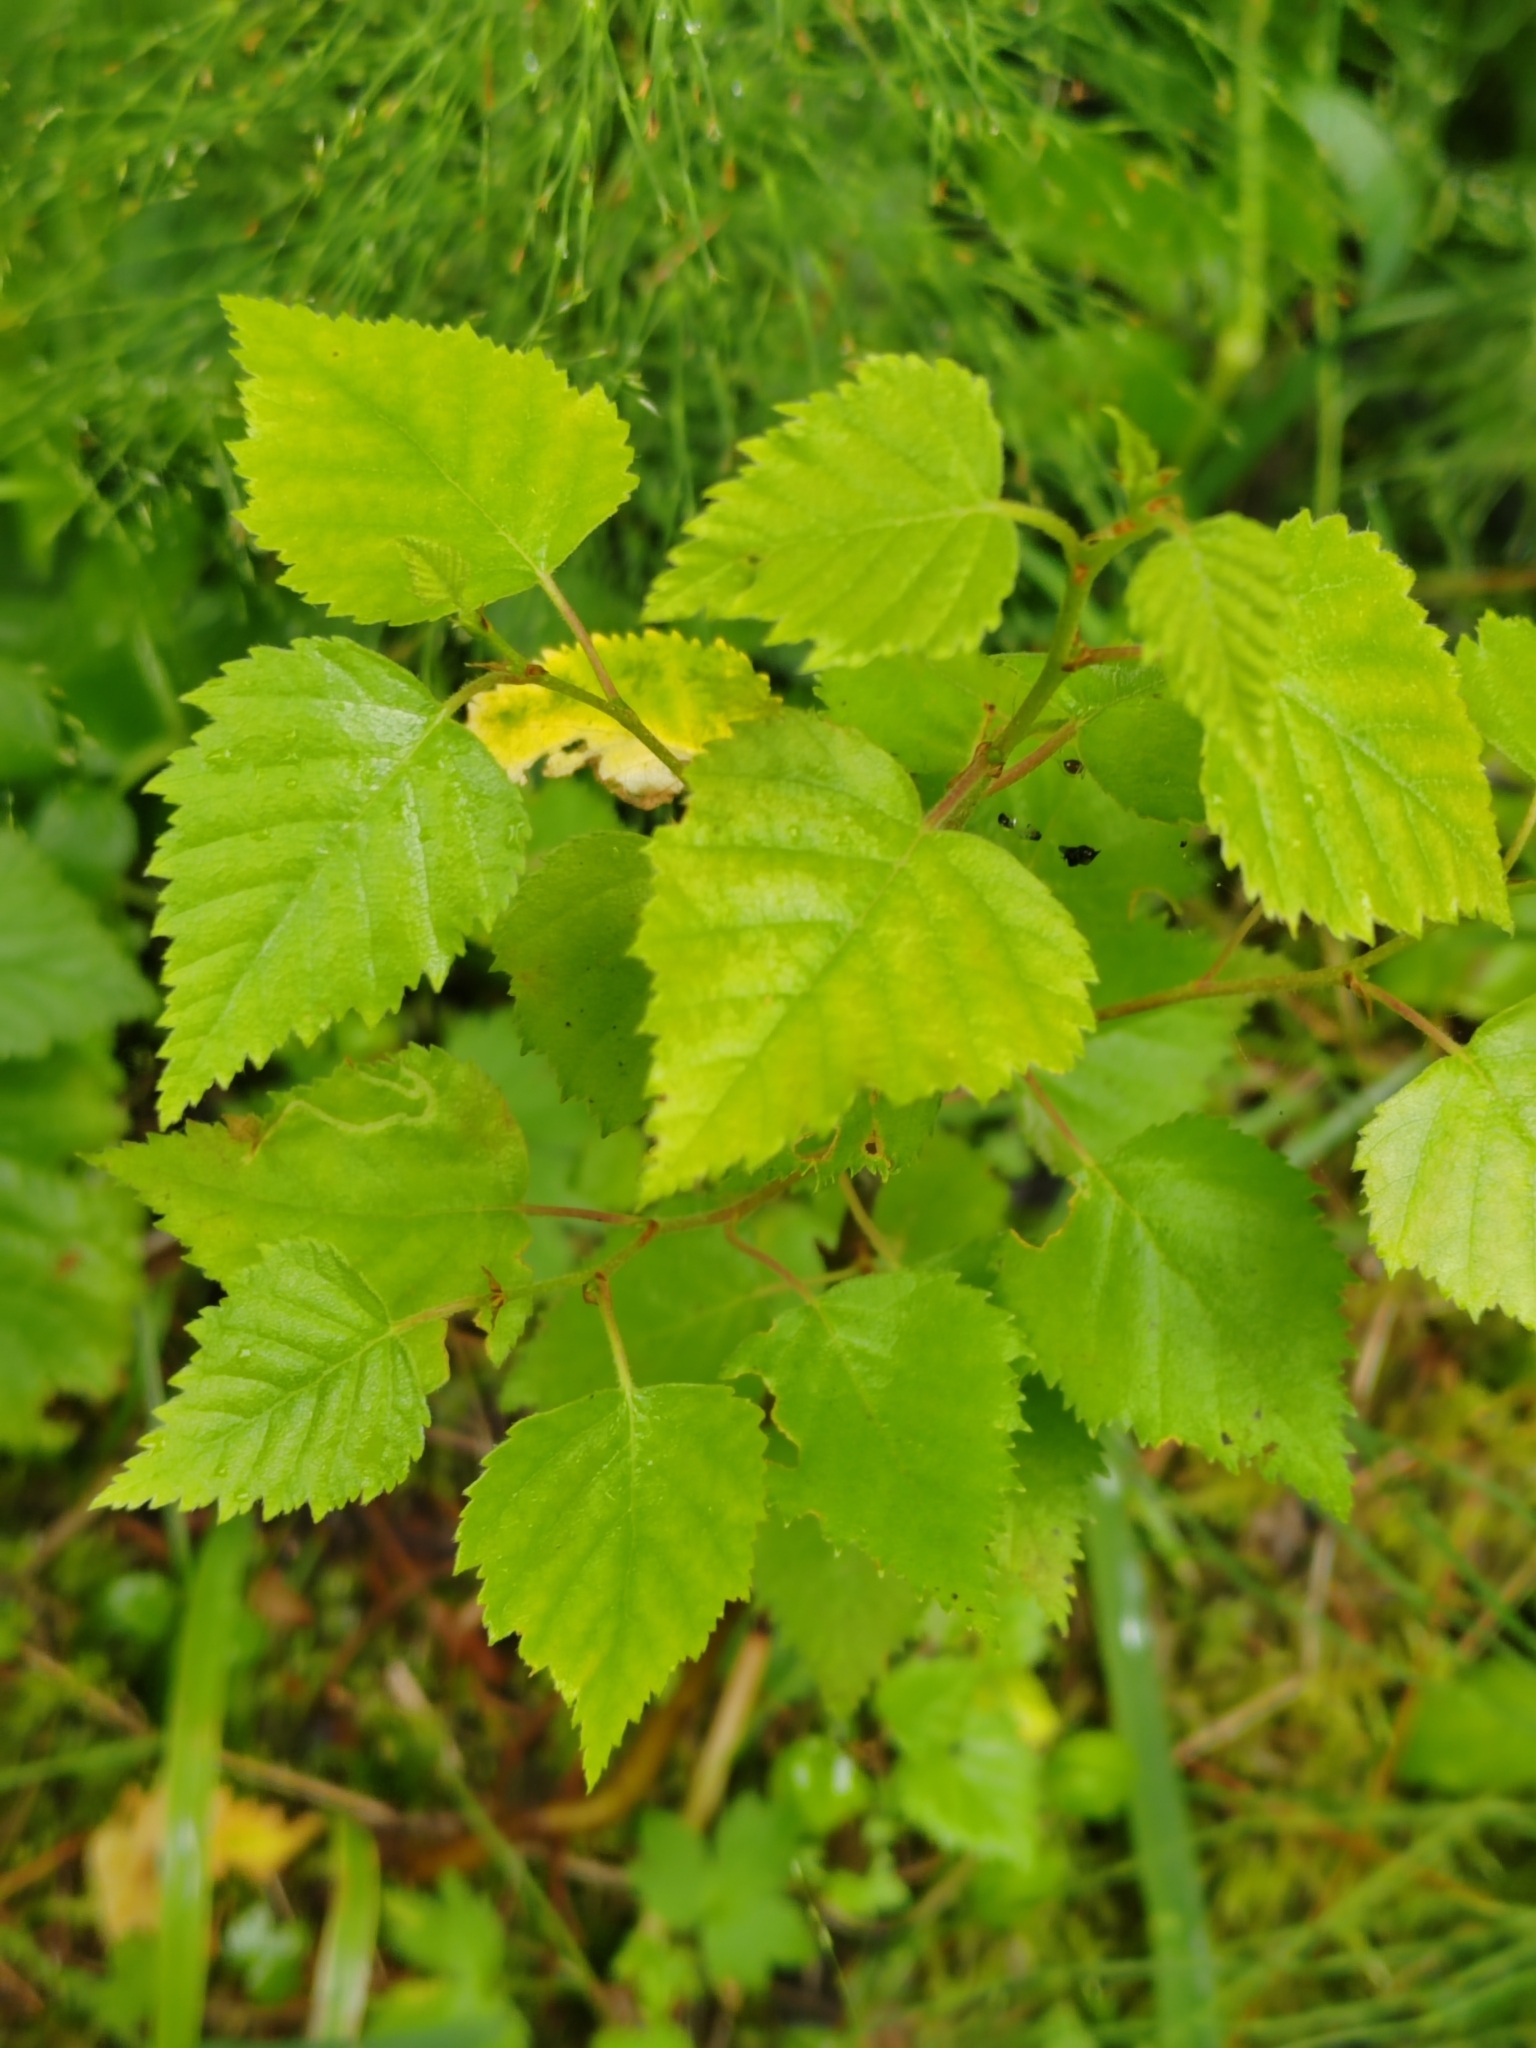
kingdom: Plantae
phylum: Tracheophyta
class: Magnoliopsida
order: Fagales
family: Betulaceae
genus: Betula
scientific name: Betula pubescens
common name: Downy birch
